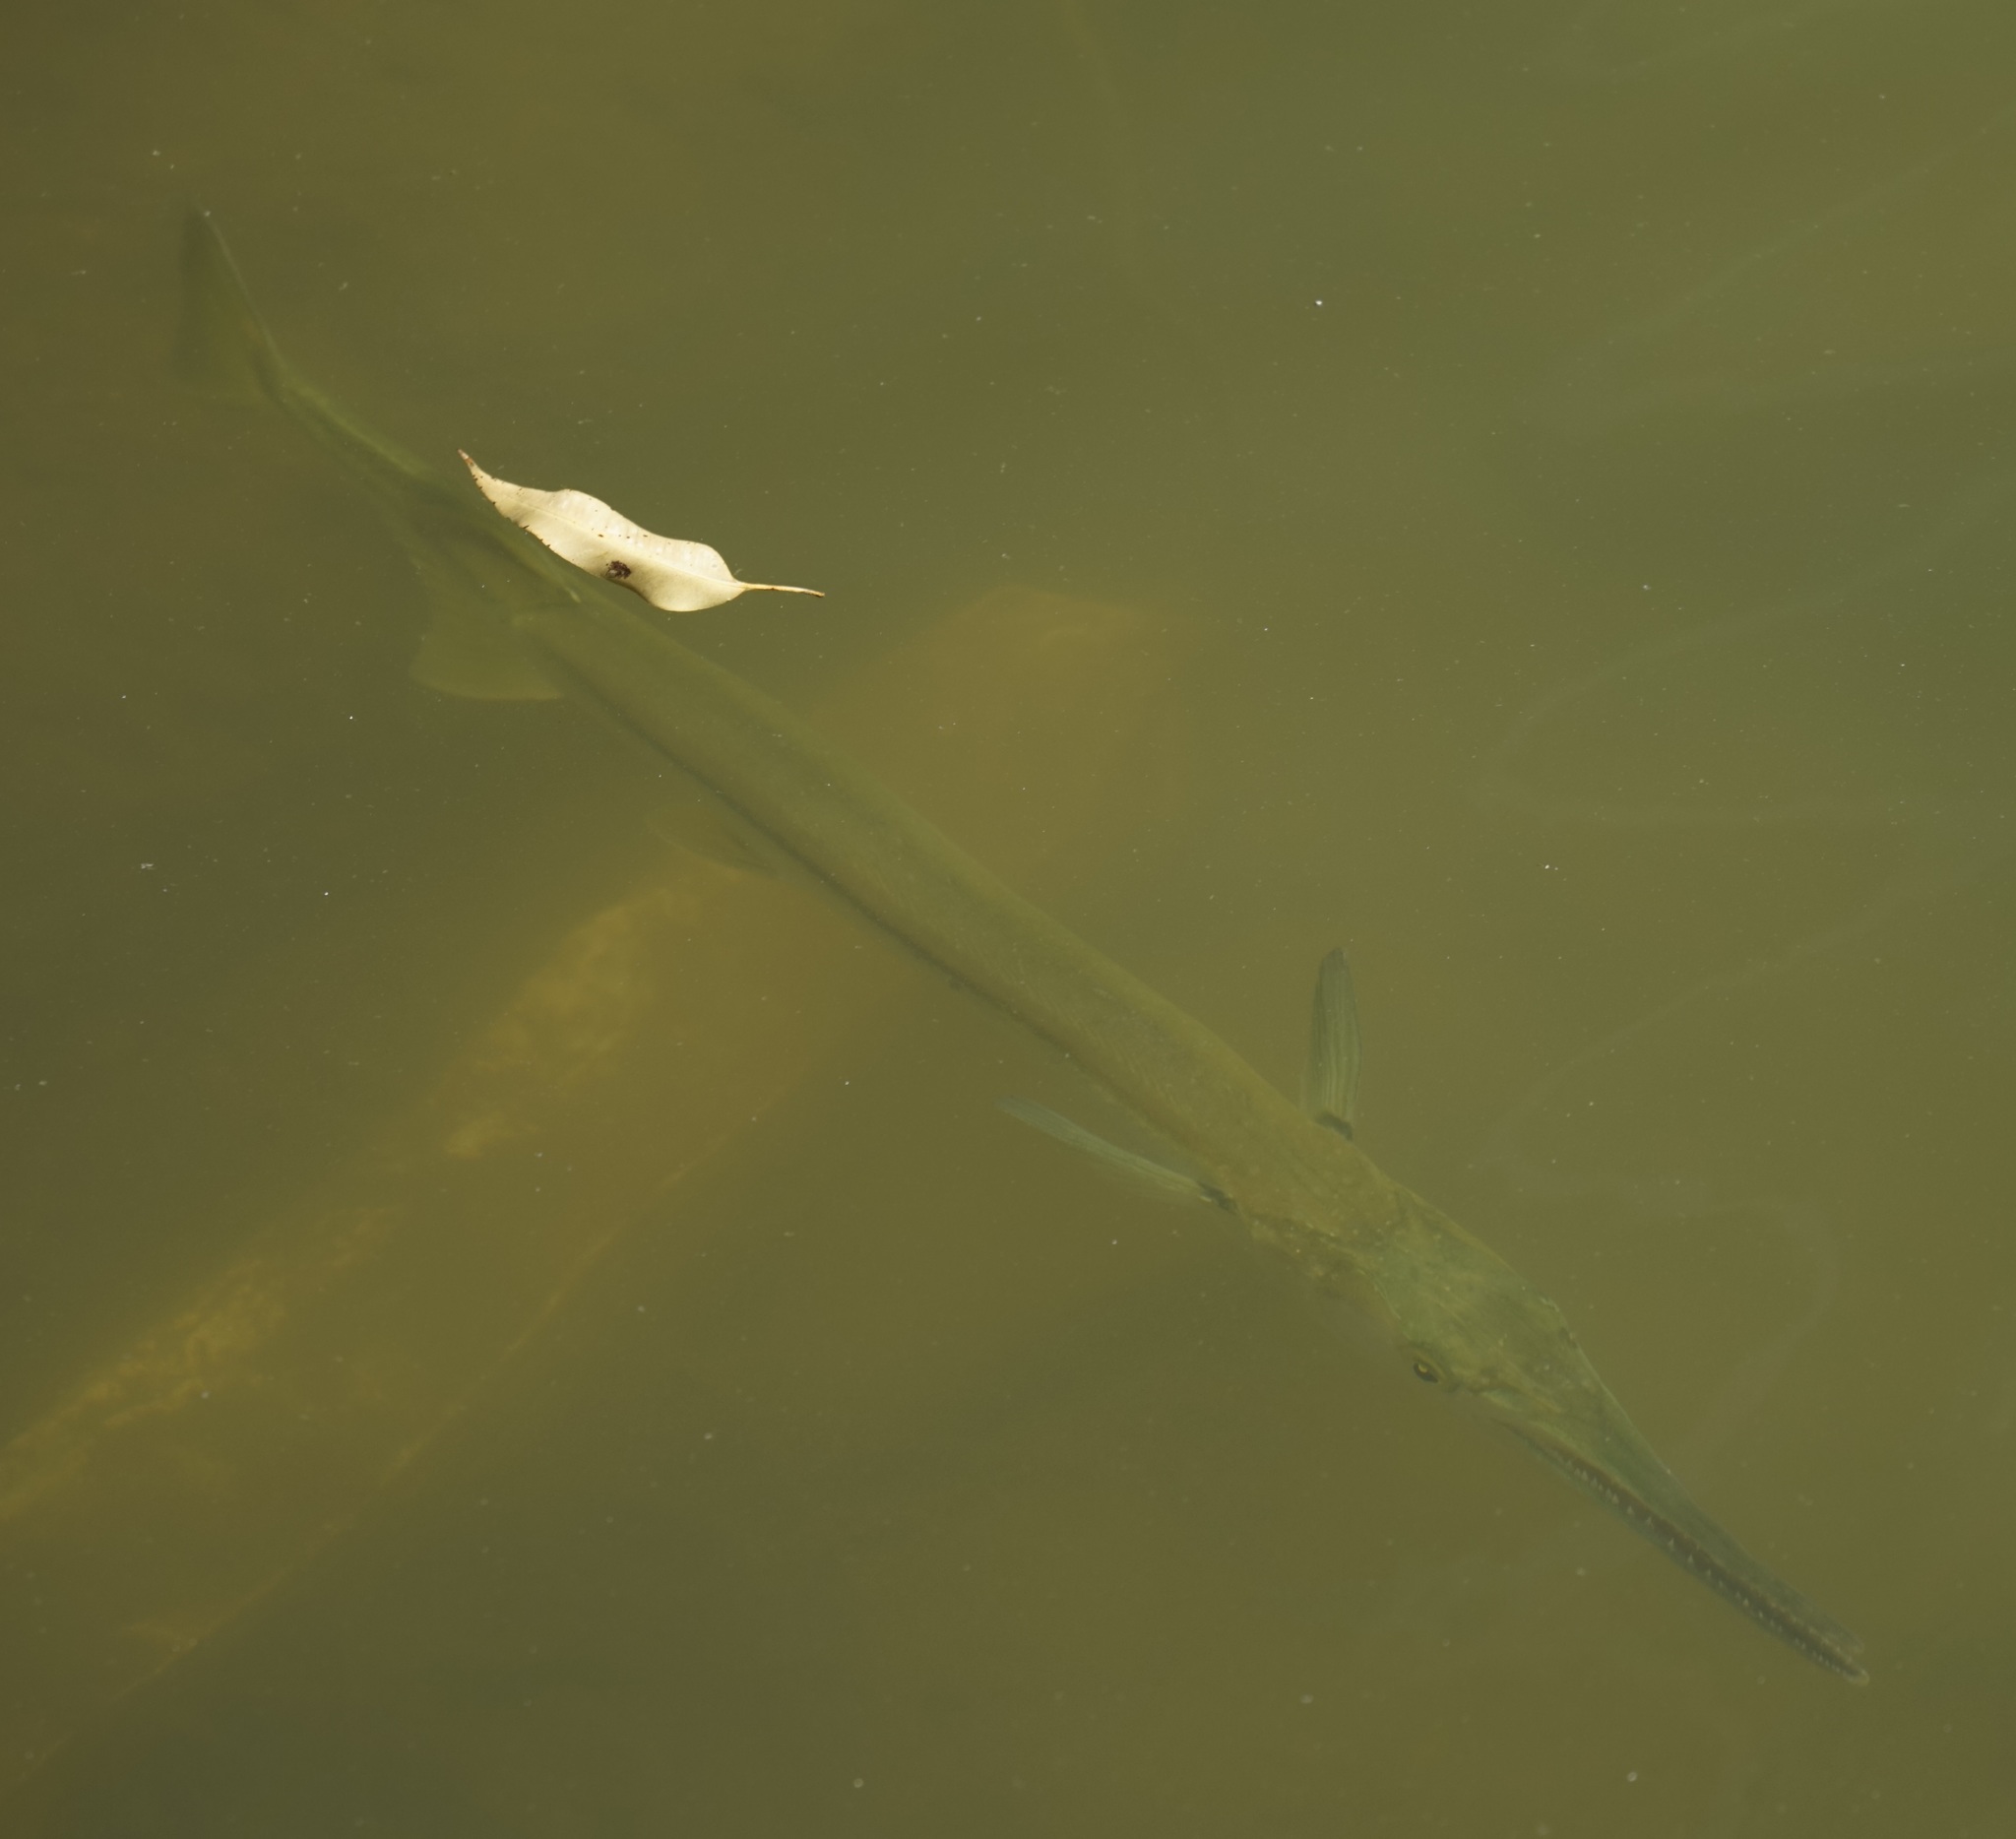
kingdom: Animalia
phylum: Chordata
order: Beloniformes
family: Belonidae
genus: Tylosurus
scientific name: Tylosurus gavialoides
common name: Stout longtom
